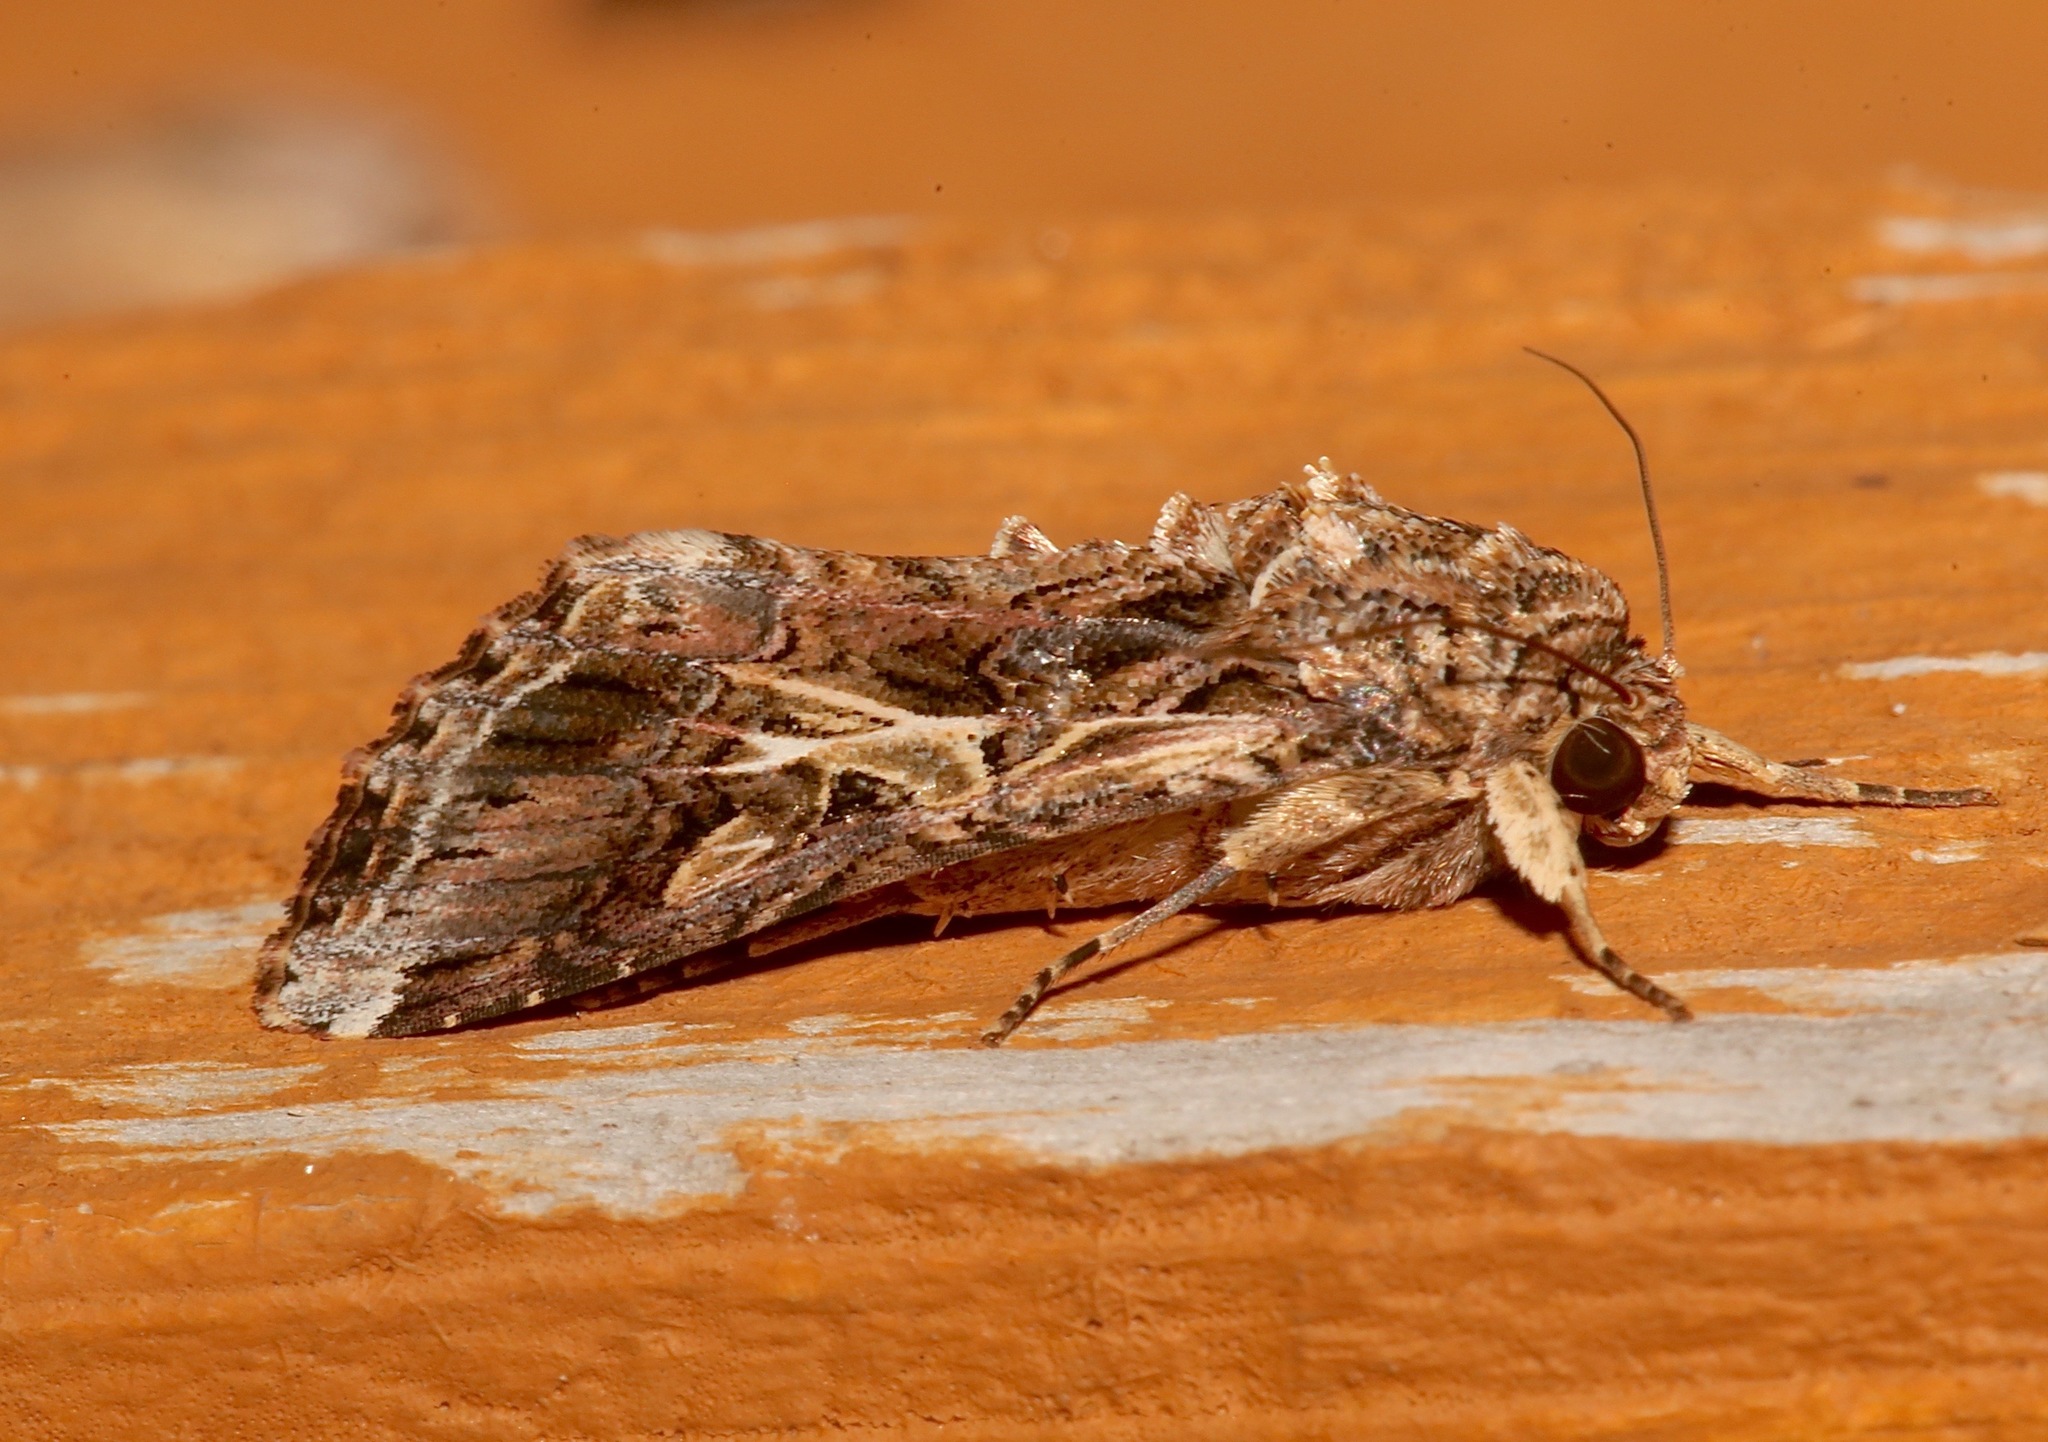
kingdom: Animalia
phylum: Arthropoda
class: Insecta
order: Lepidoptera
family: Noctuidae
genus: Spodoptera
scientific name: Spodoptera ornithogalli
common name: Yellow-striped armyworm
